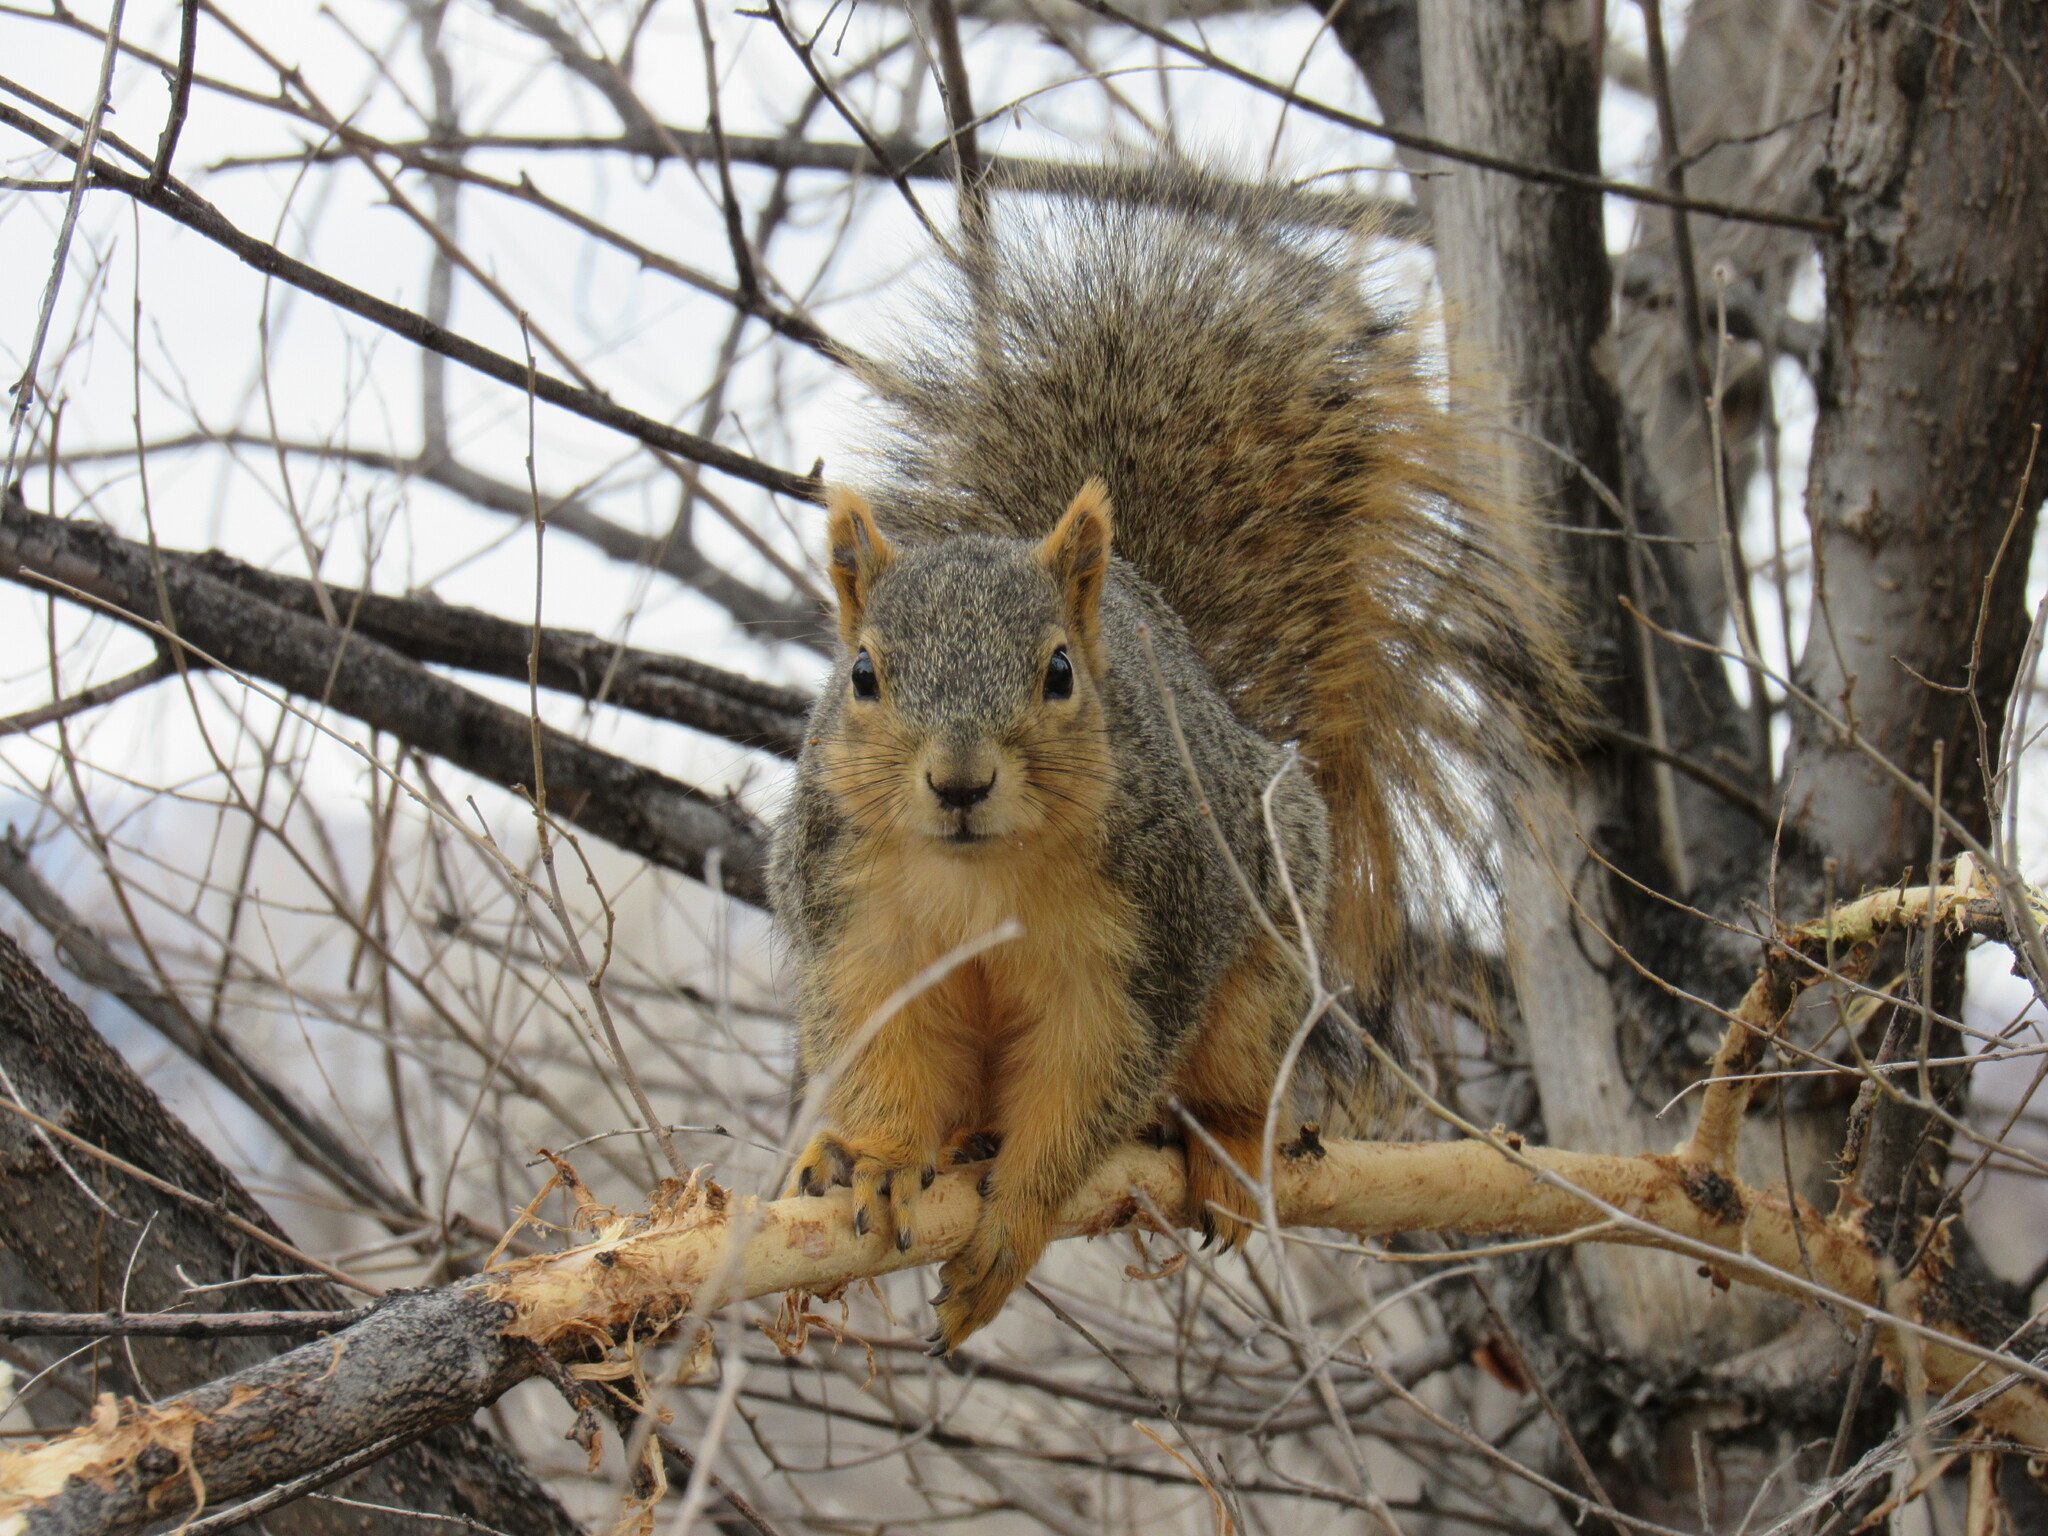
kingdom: Animalia
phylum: Chordata
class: Mammalia
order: Rodentia
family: Sciuridae
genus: Sciurus
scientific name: Sciurus niger
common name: Fox squirrel
